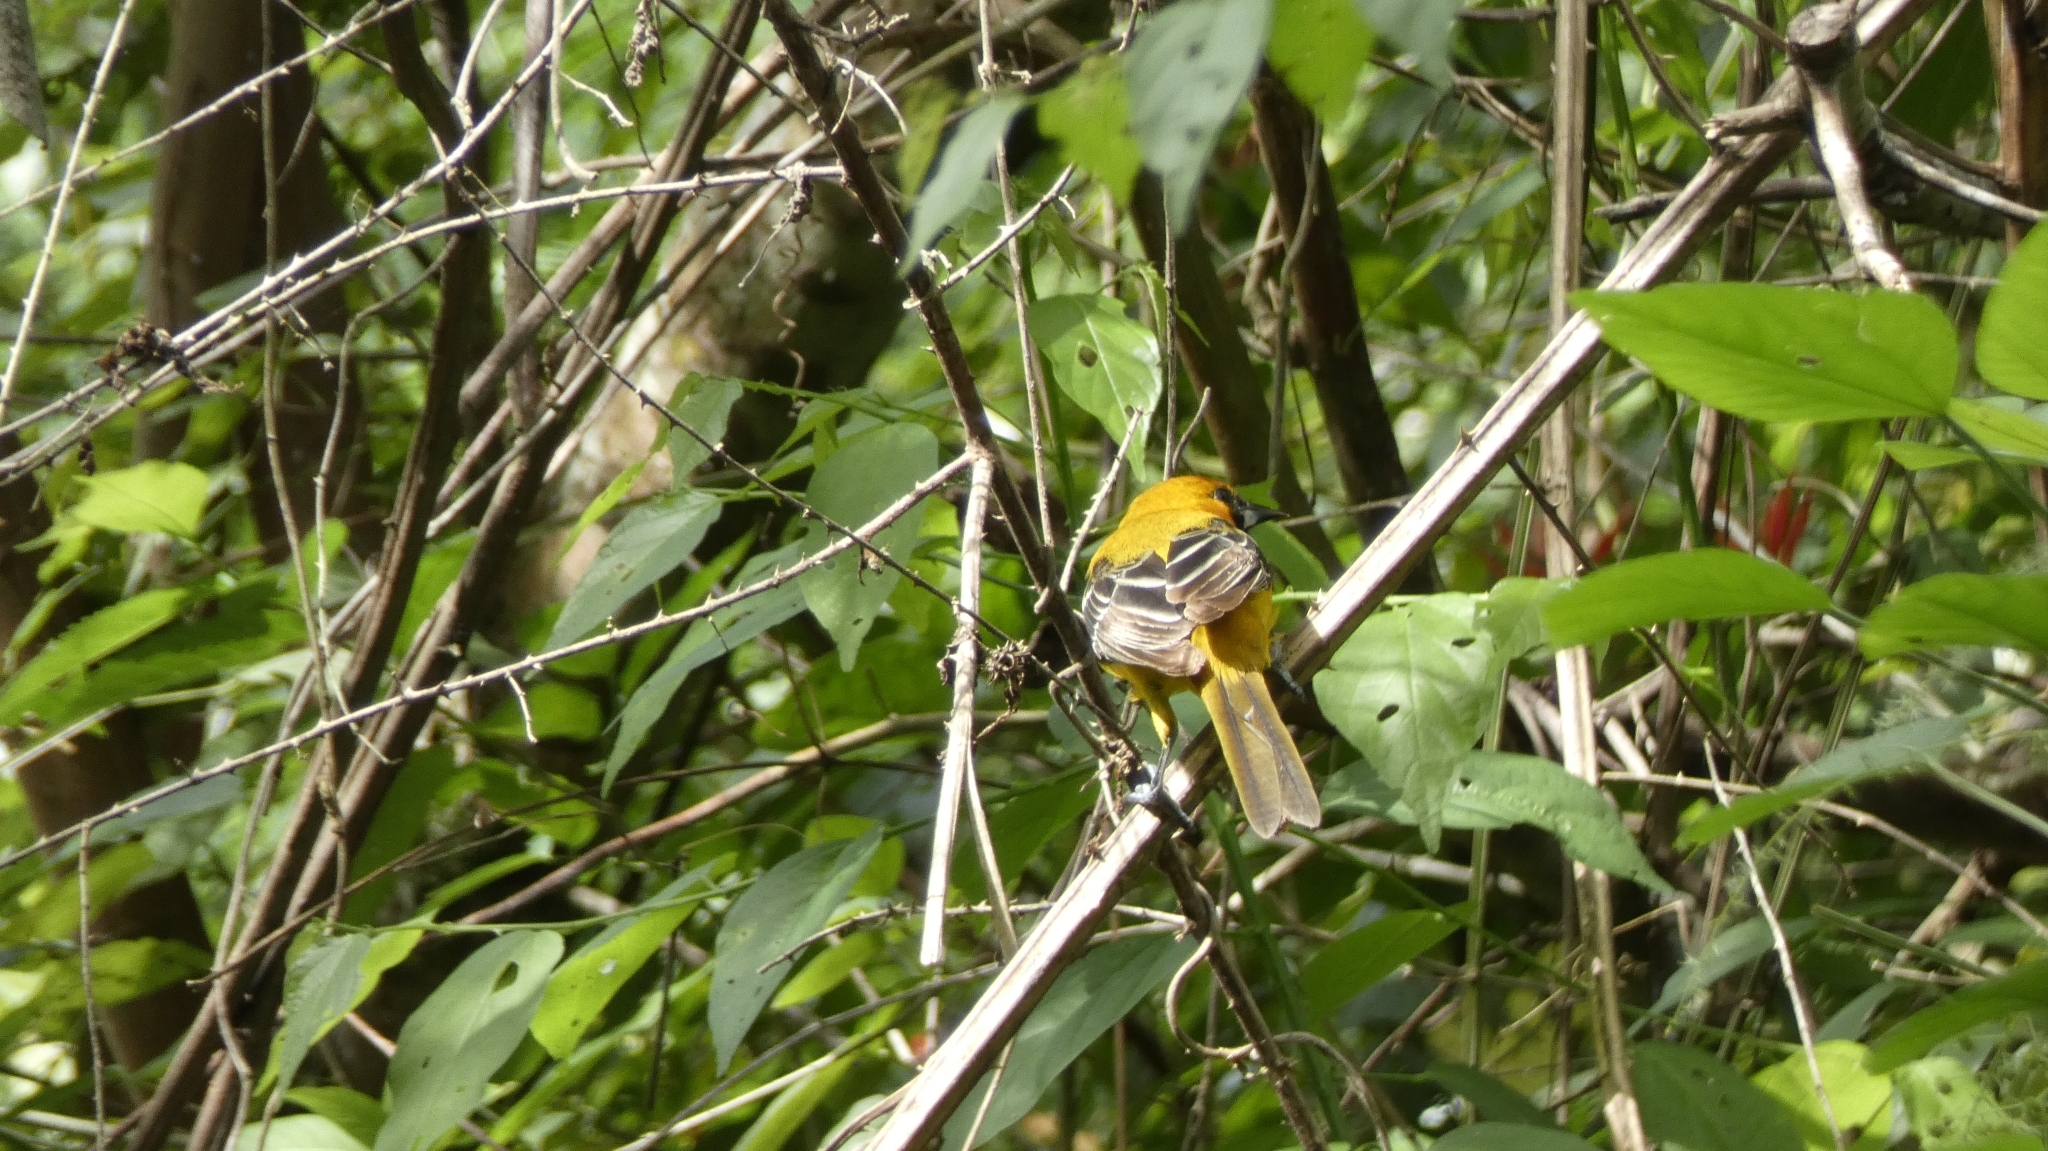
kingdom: Animalia
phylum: Chordata
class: Aves
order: Passeriformes
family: Icteridae
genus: Icterus
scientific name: Icterus auratus
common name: Orange oriole
